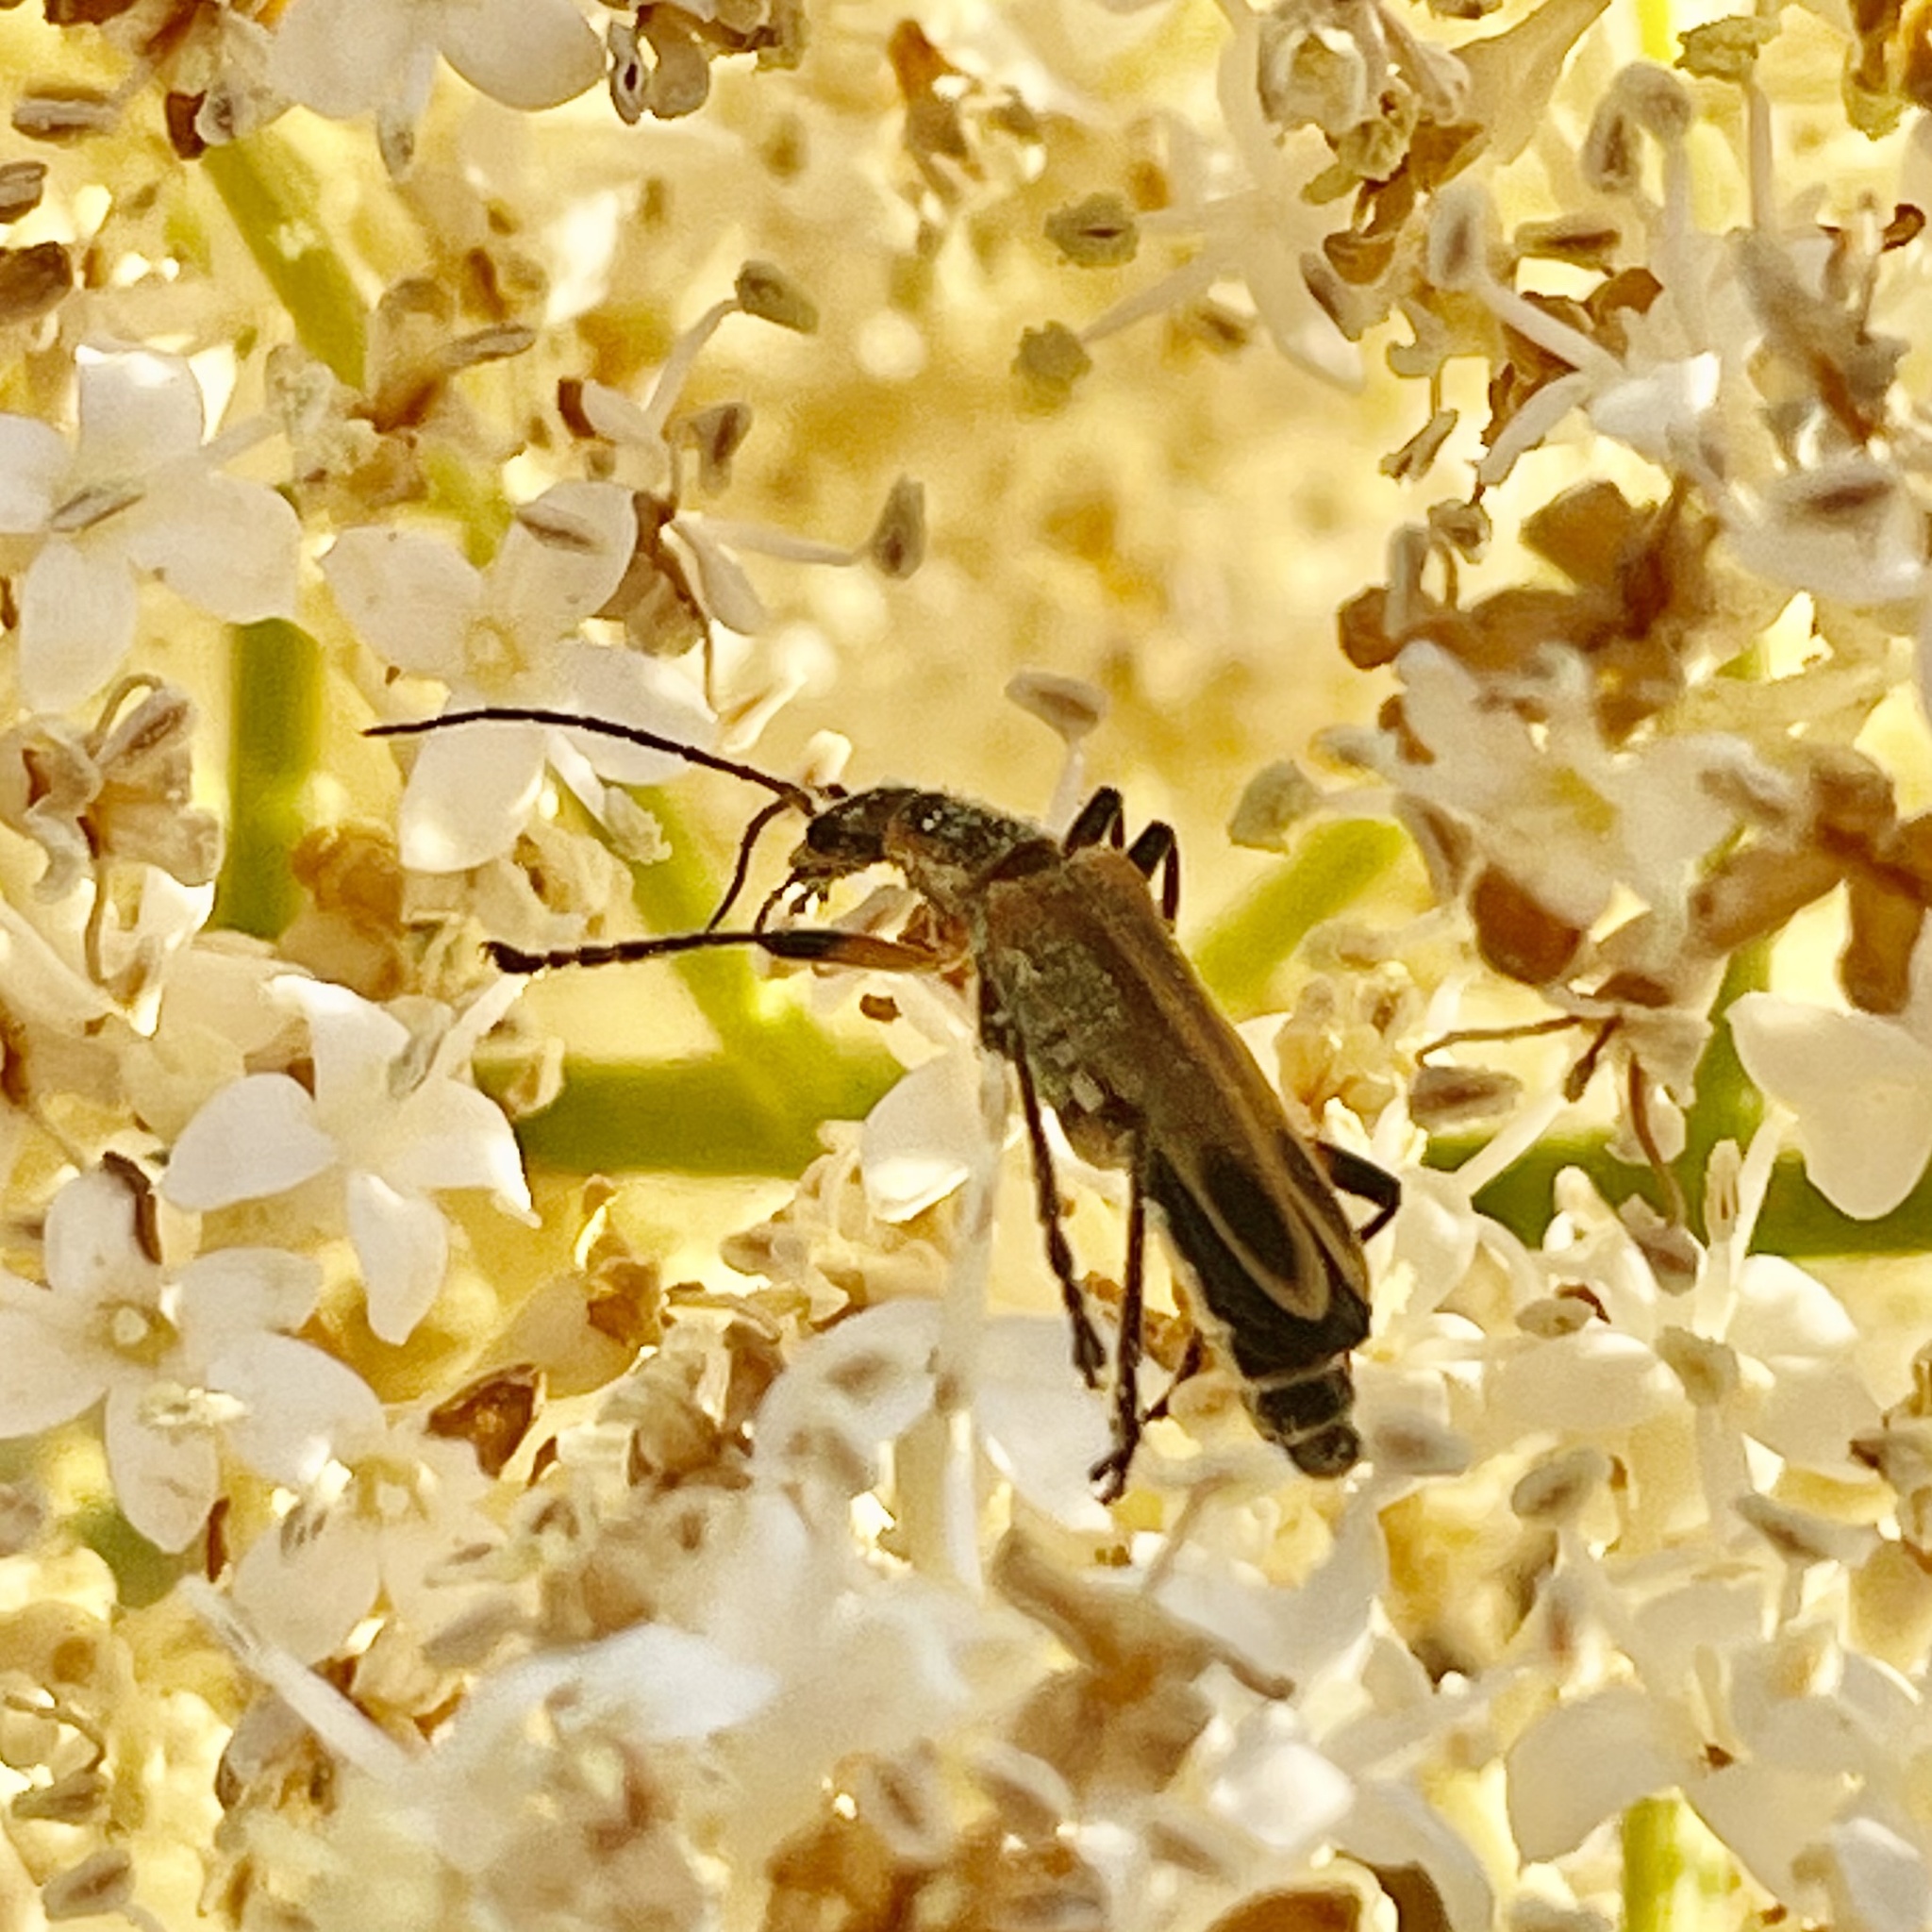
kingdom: Animalia
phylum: Arthropoda
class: Insecta
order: Coleoptera
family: Cantharidae
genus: Chauliognathus
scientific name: Chauliognathus marginatus
